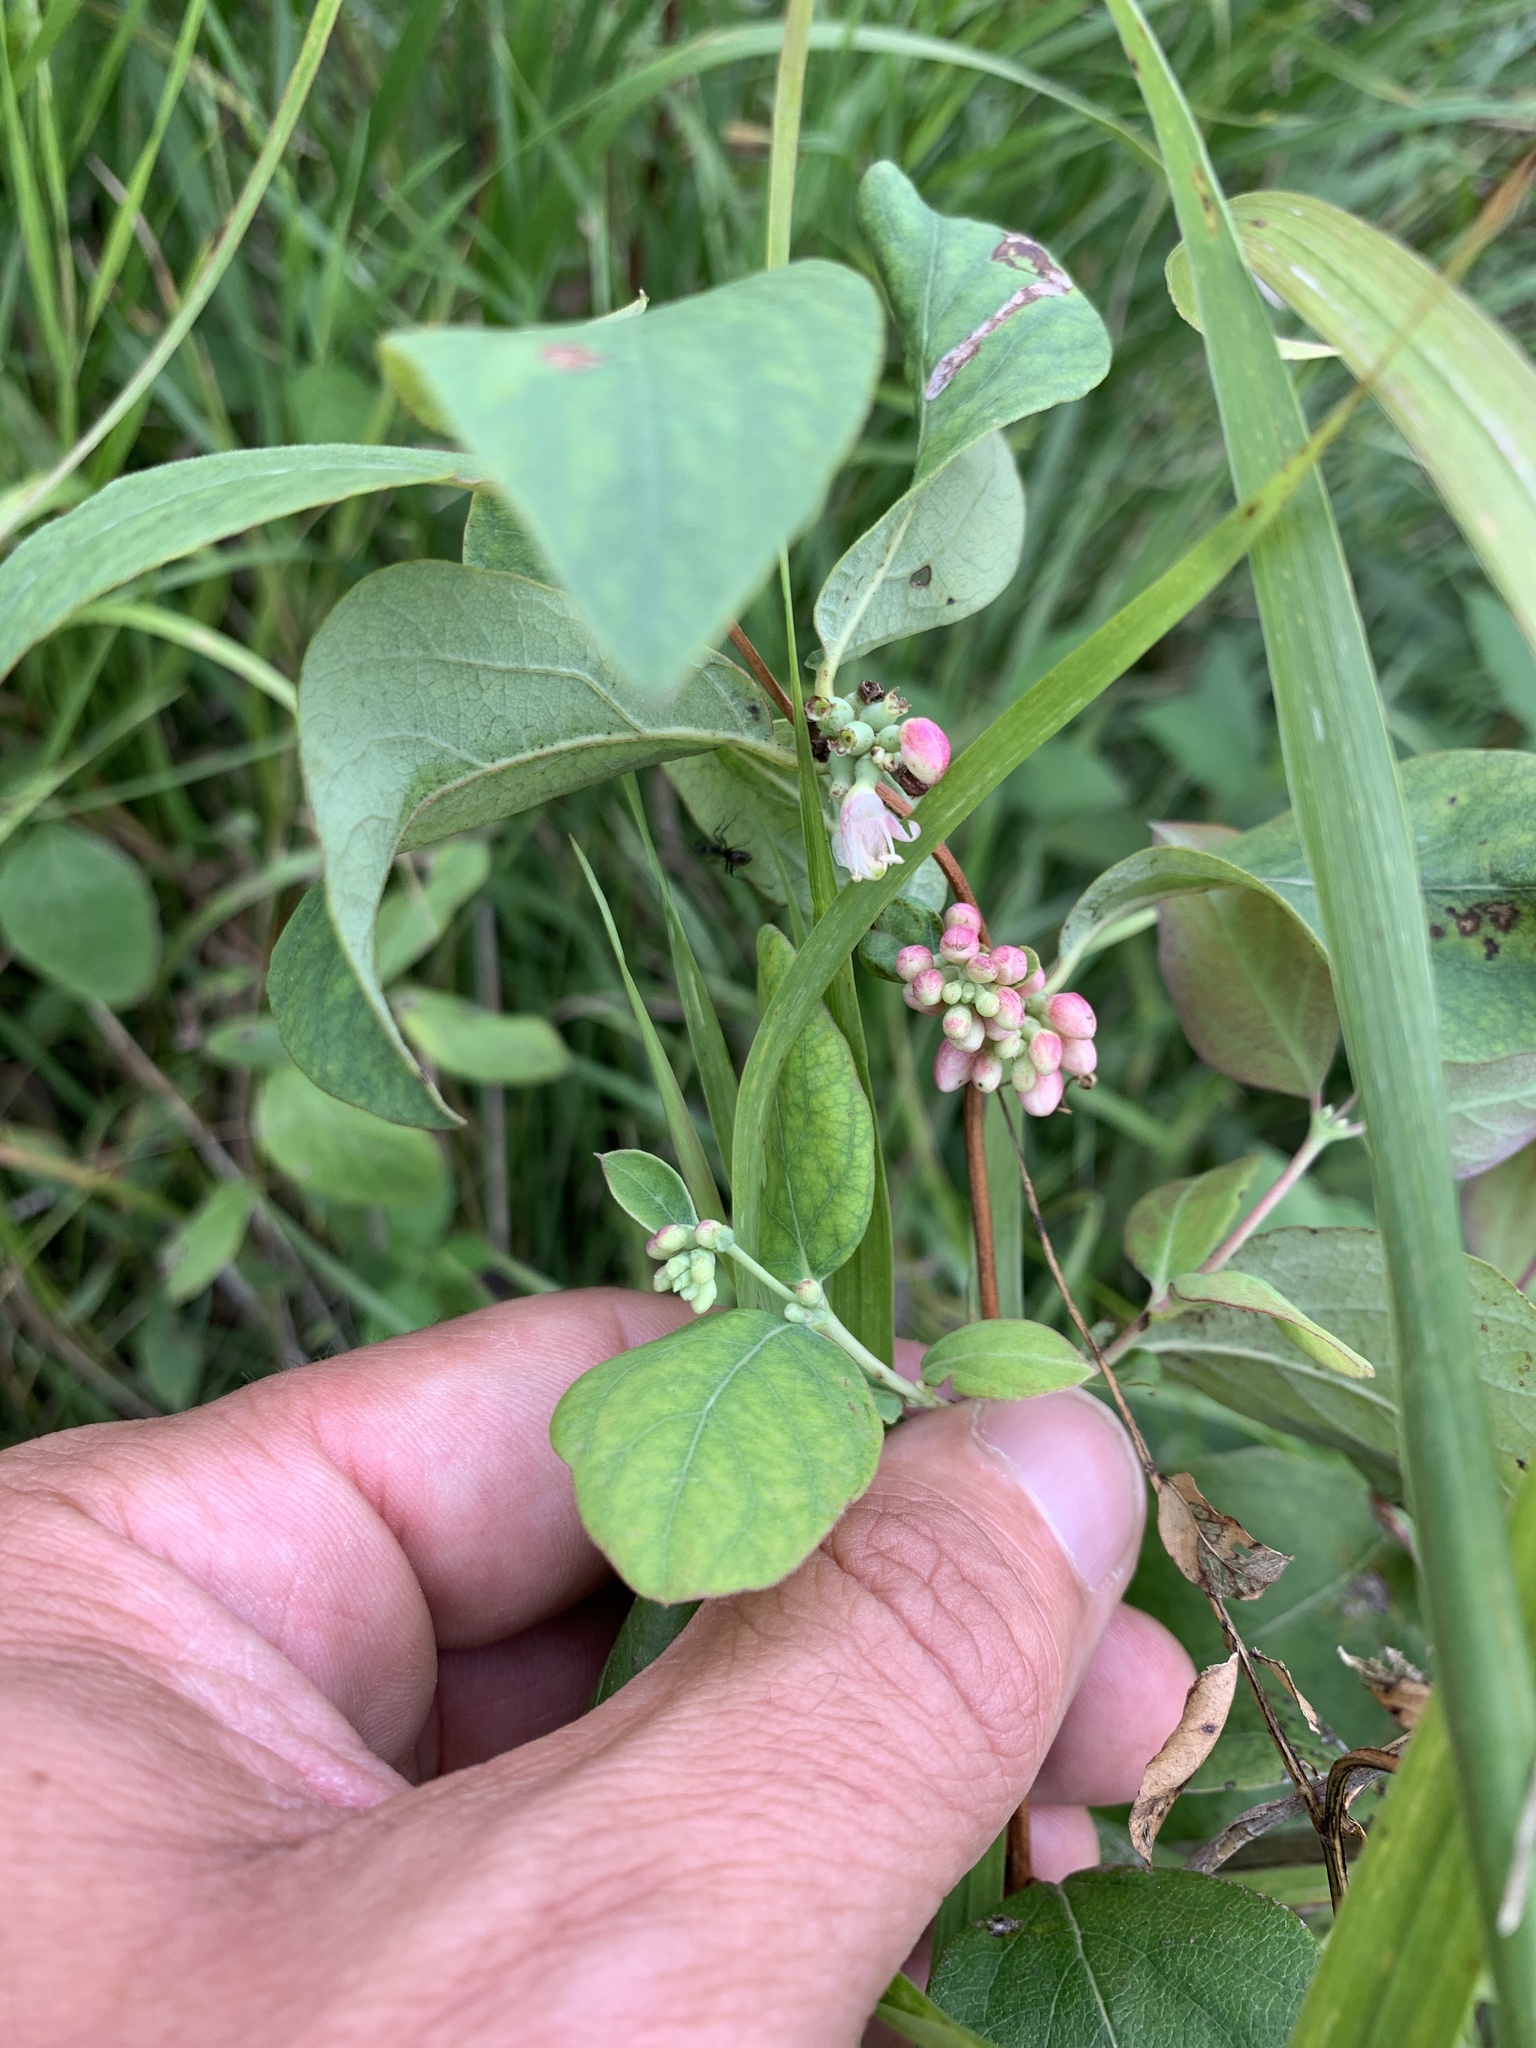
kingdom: Plantae
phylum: Tracheophyta
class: Magnoliopsida
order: Dipsacales
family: Caprifoliaceae
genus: Symphoricarpos
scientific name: Symphoricarpos occidentalis
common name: Wolfberry
